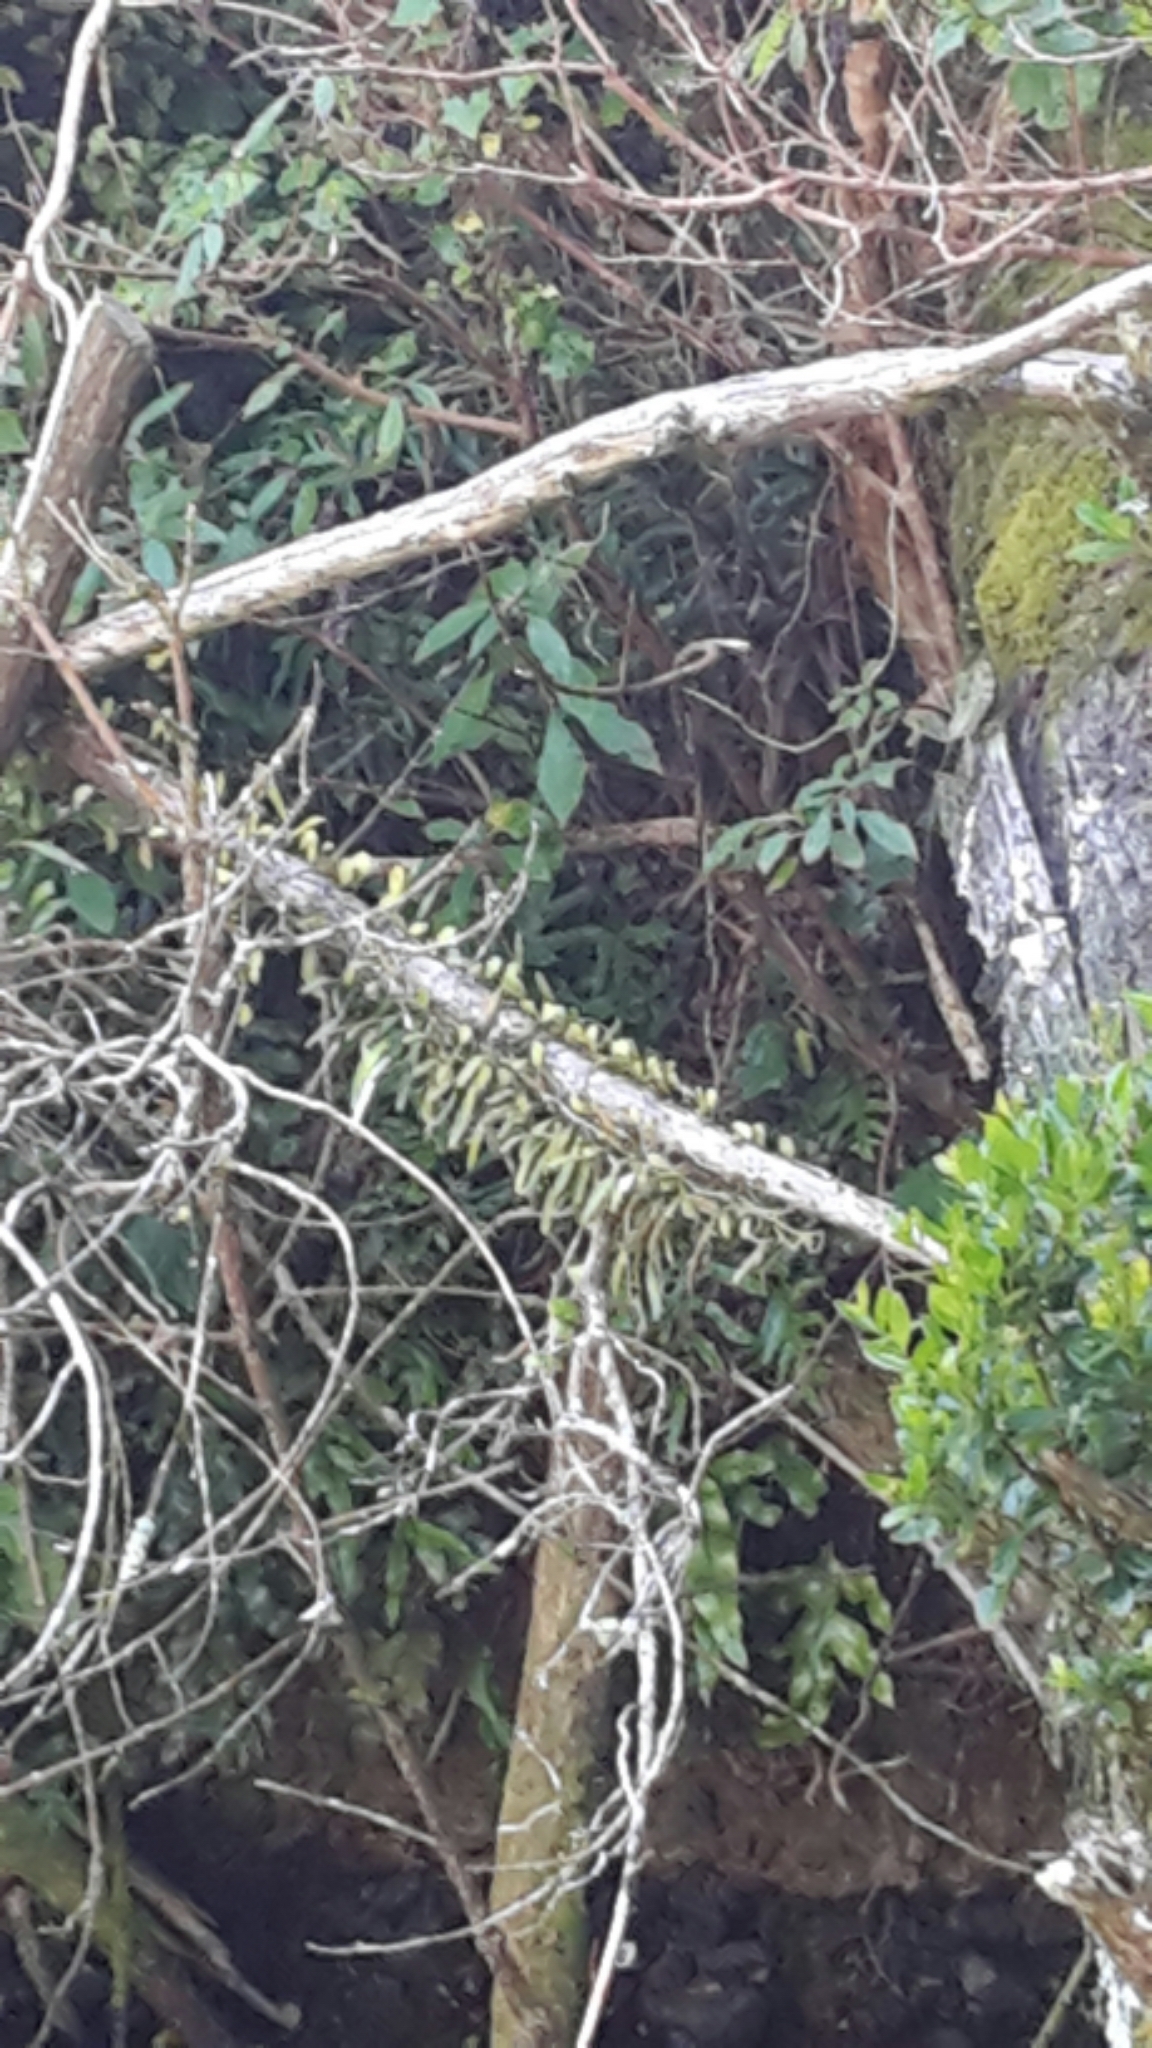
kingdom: Plantae
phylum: Tracheophyta
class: Polypodiopsida
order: Polypodiales
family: Polypodiaceae
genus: Pyrrosia
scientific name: Pyrrosia eleagnifolia
